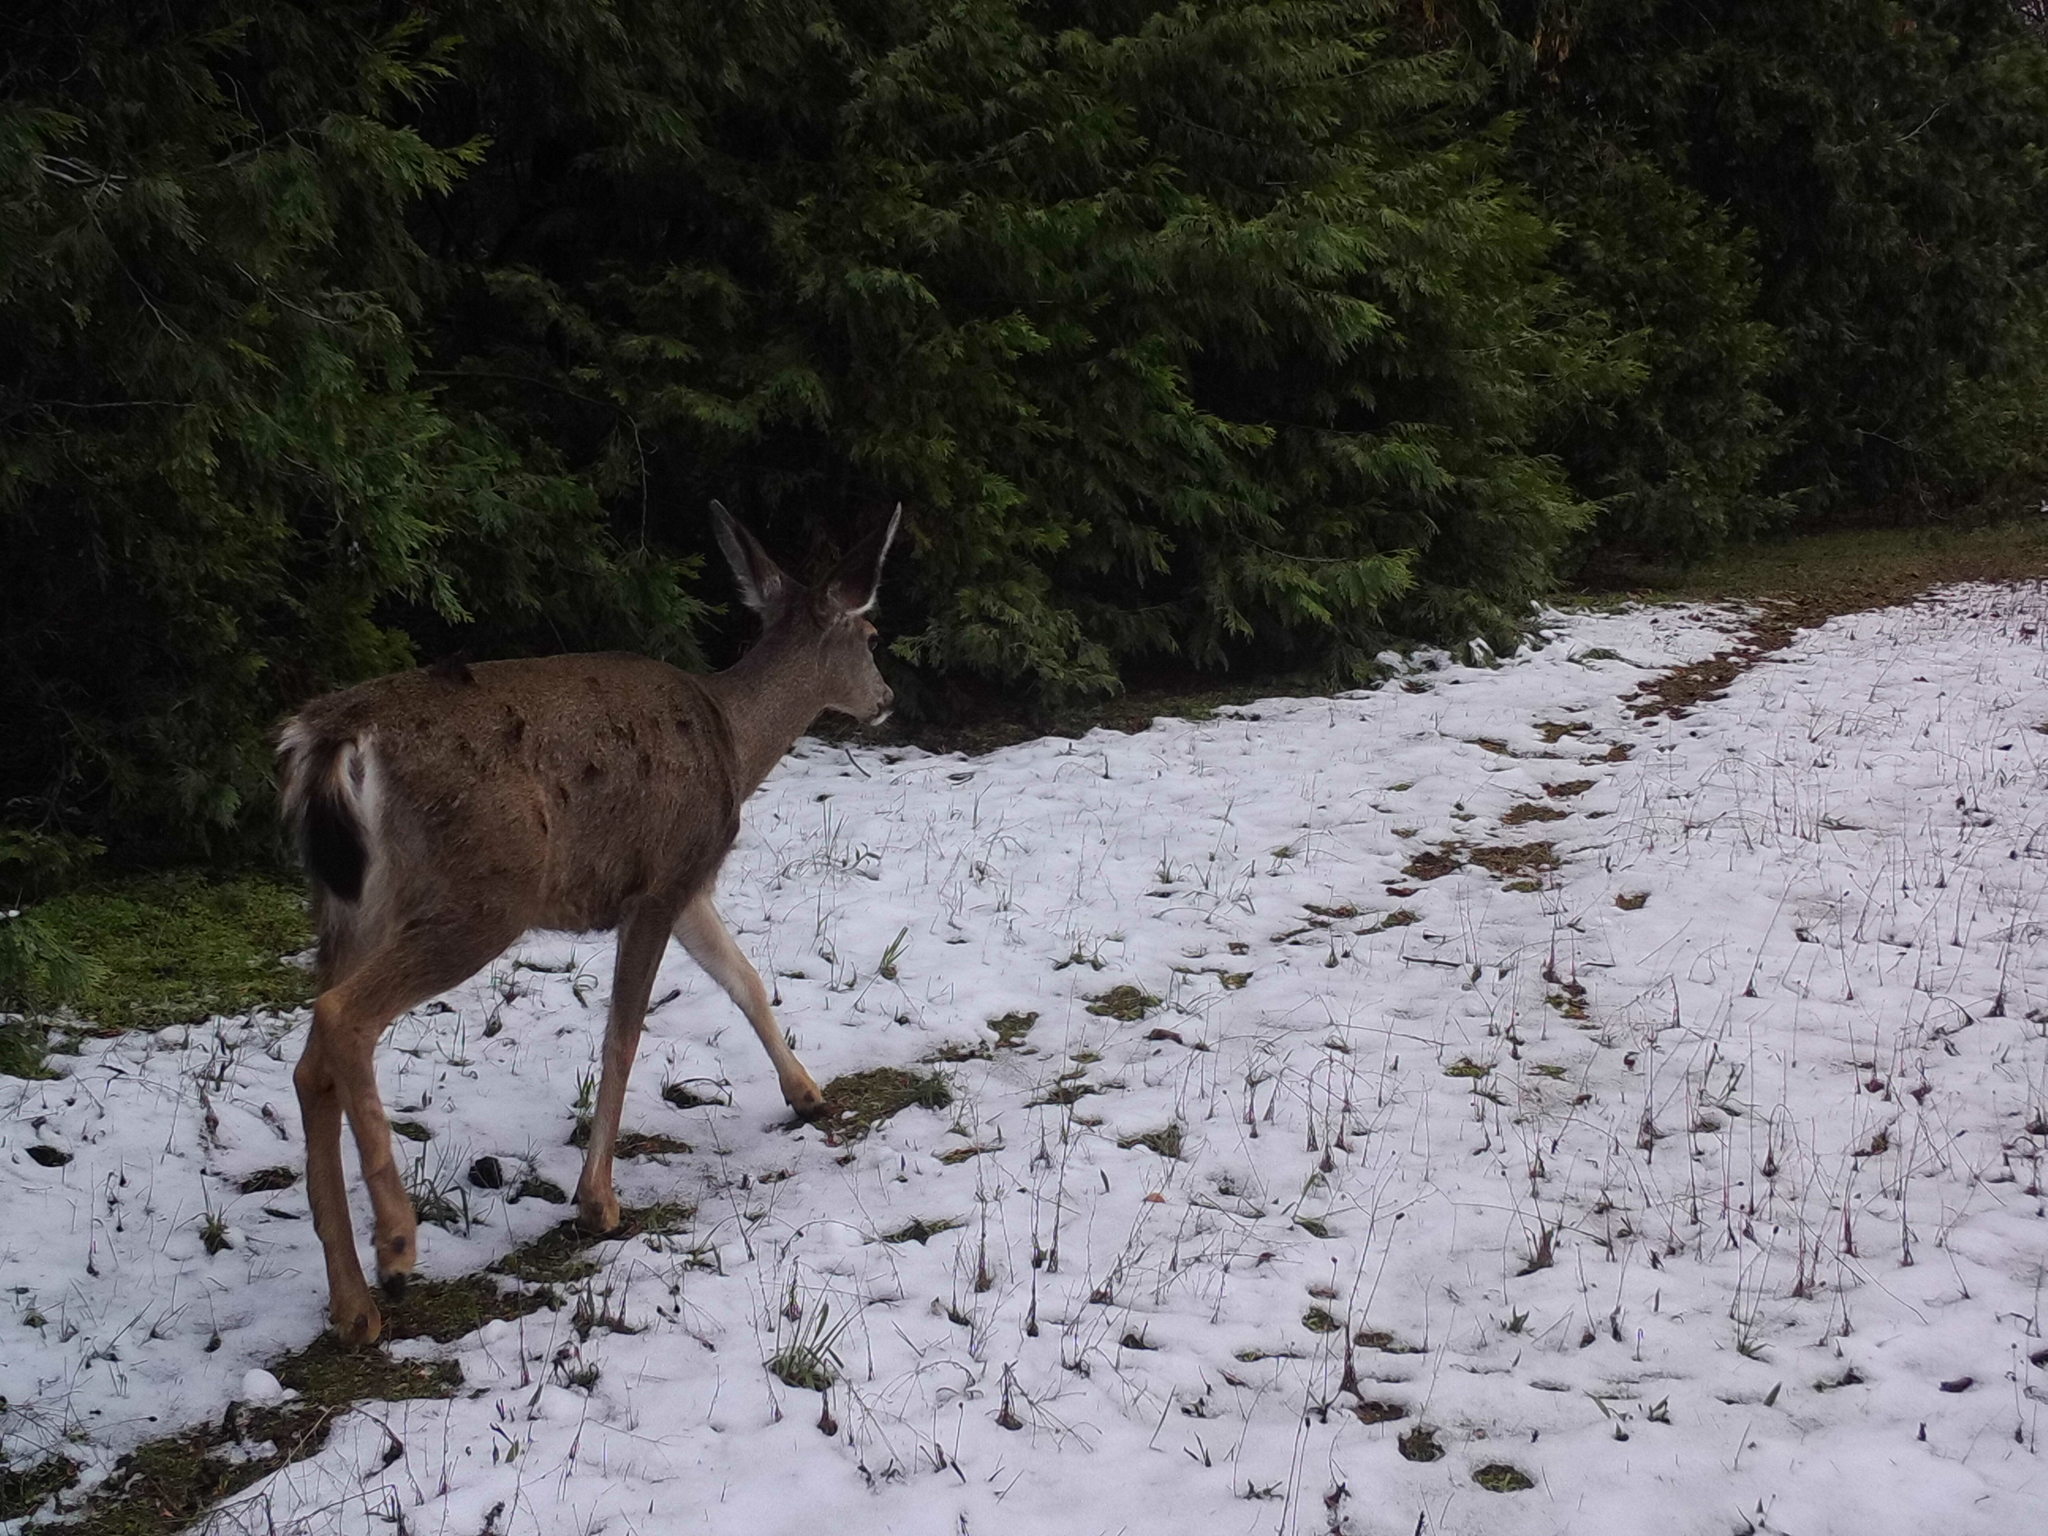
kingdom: Animalia
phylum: Chordata
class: Mammalia
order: Artiodactyla
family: Cervidae
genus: Odocoileus
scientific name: Odocoileus hemionus
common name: Mule deer
